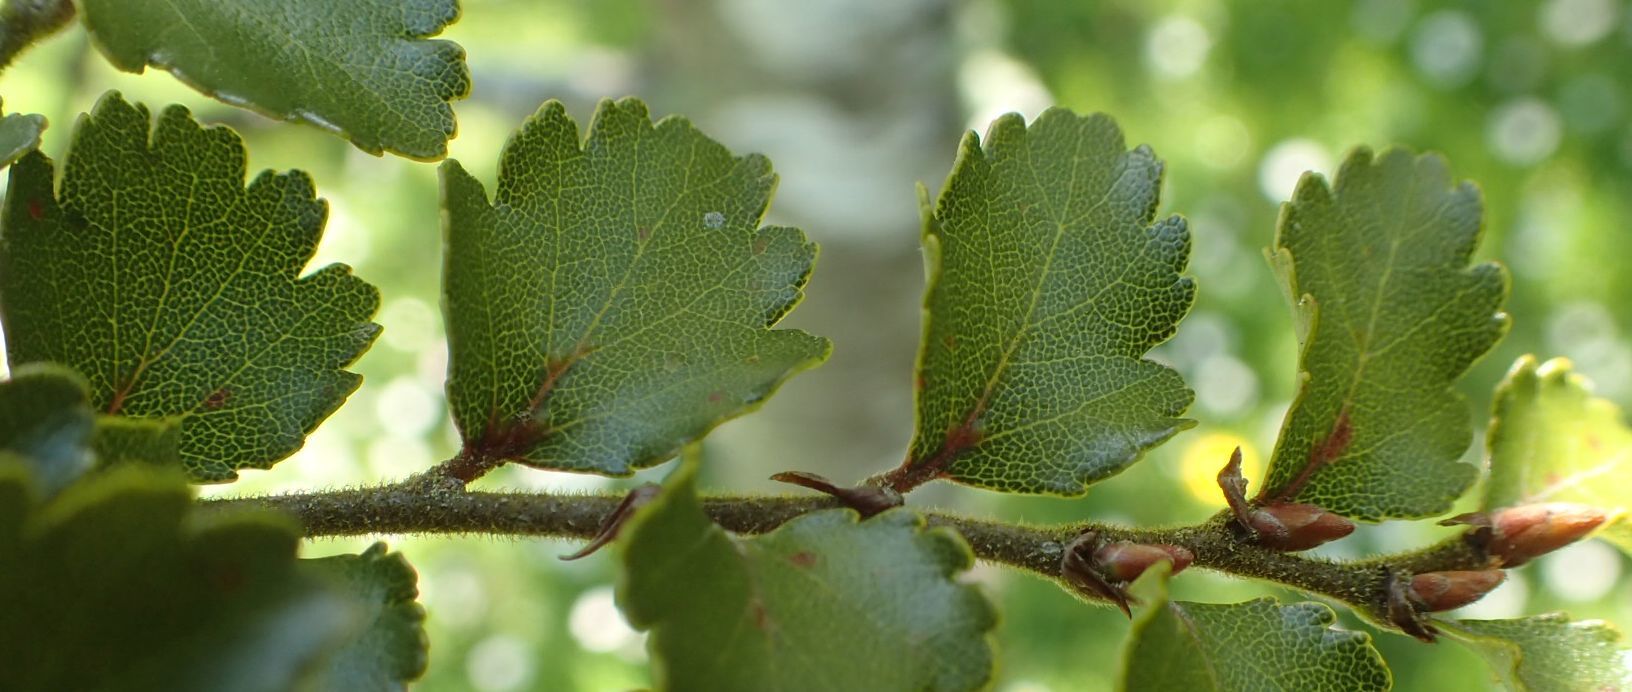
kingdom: Plantae
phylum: Tracheophyta
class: Magnoliopsida
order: Fagales
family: Nothofagaceae
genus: Nothofagus
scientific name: Nothofagus menziesii
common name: Silver beech
